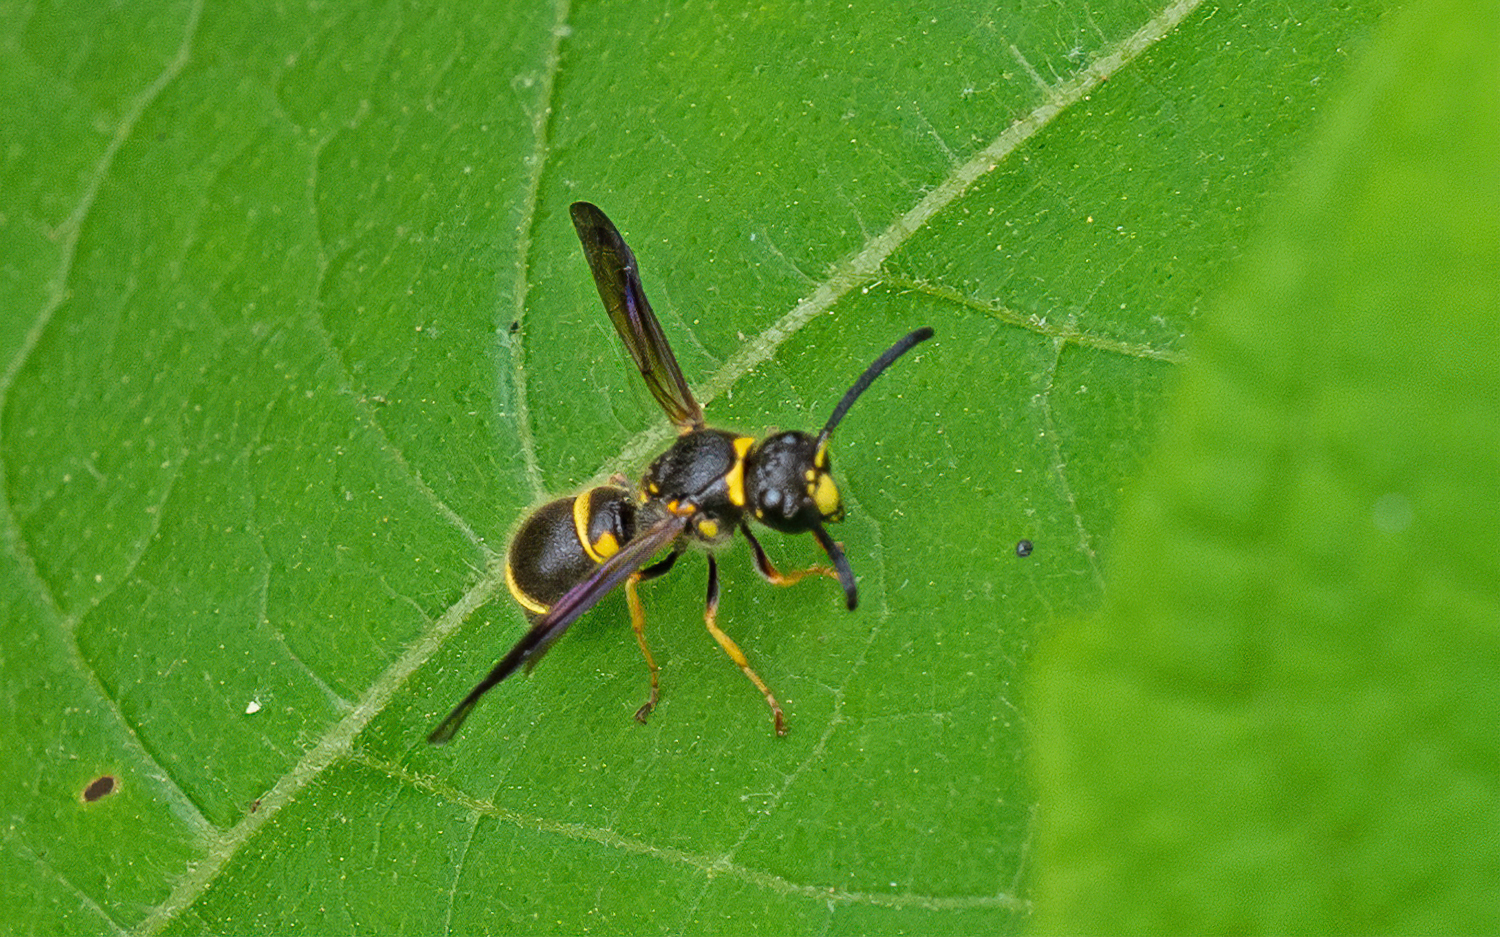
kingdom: Animalia
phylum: Arthropoda
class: Insecta
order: Hymenoptera
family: Vespidae
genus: Ancistrocerus
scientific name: Ancistrocerus campestris
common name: Smiling mason wasp
